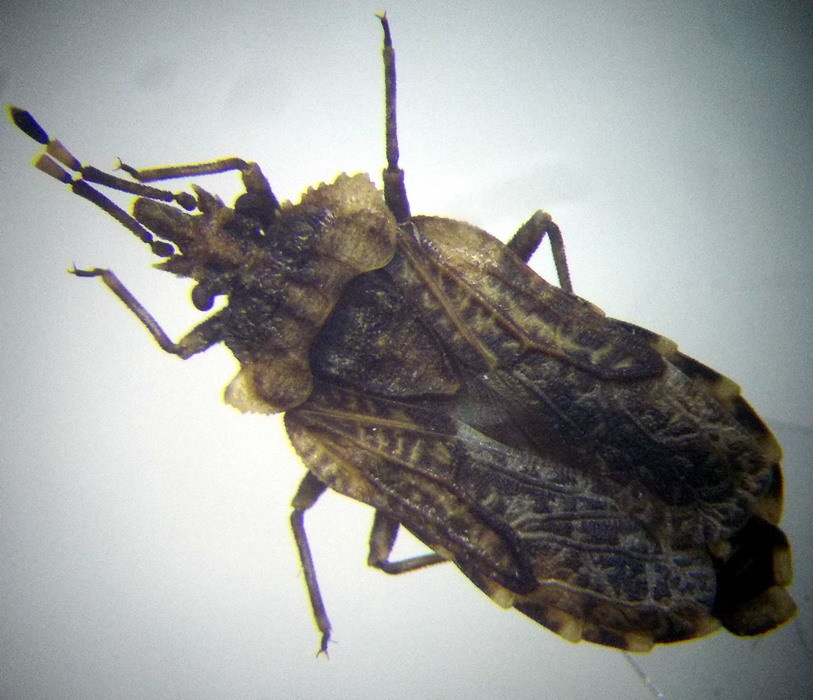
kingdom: Animalia
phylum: Arthropoda
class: Insecta
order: Hemiptera
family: Aradidae
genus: Aradus
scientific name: Aradus hieroglyphicus
